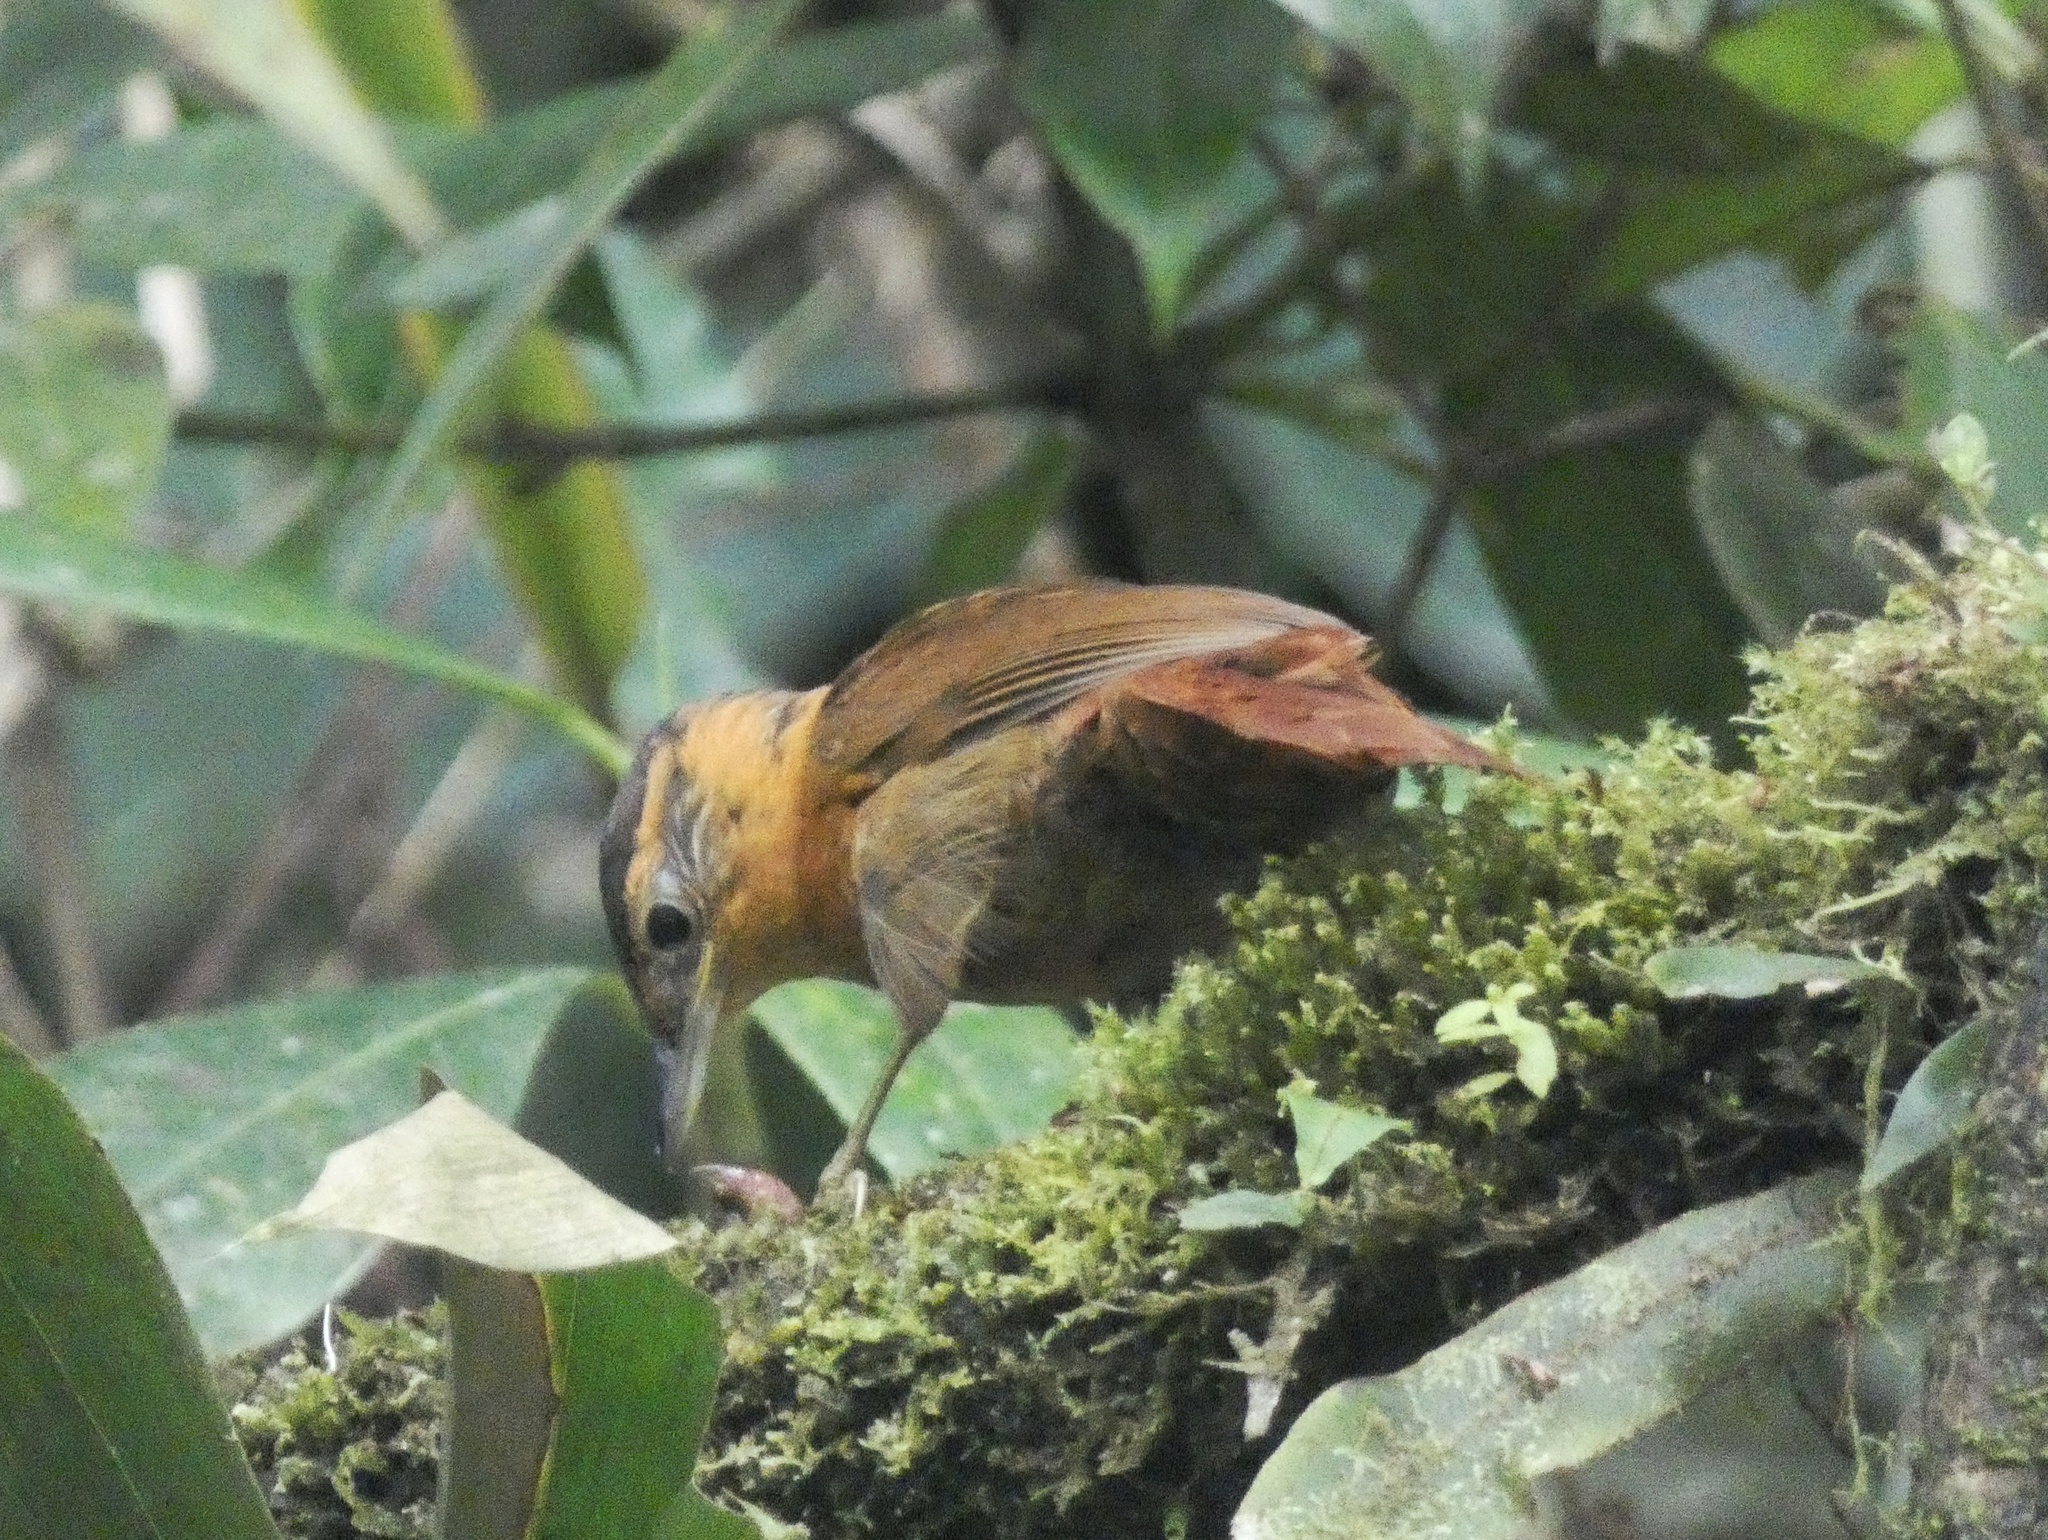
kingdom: Animalia
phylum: Chordata
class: Aves
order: Passeriformes
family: Furnariidae
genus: Anabacerthia
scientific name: Anabacerthia variegaticeps
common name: Scaly-throated foliage-gleaner
